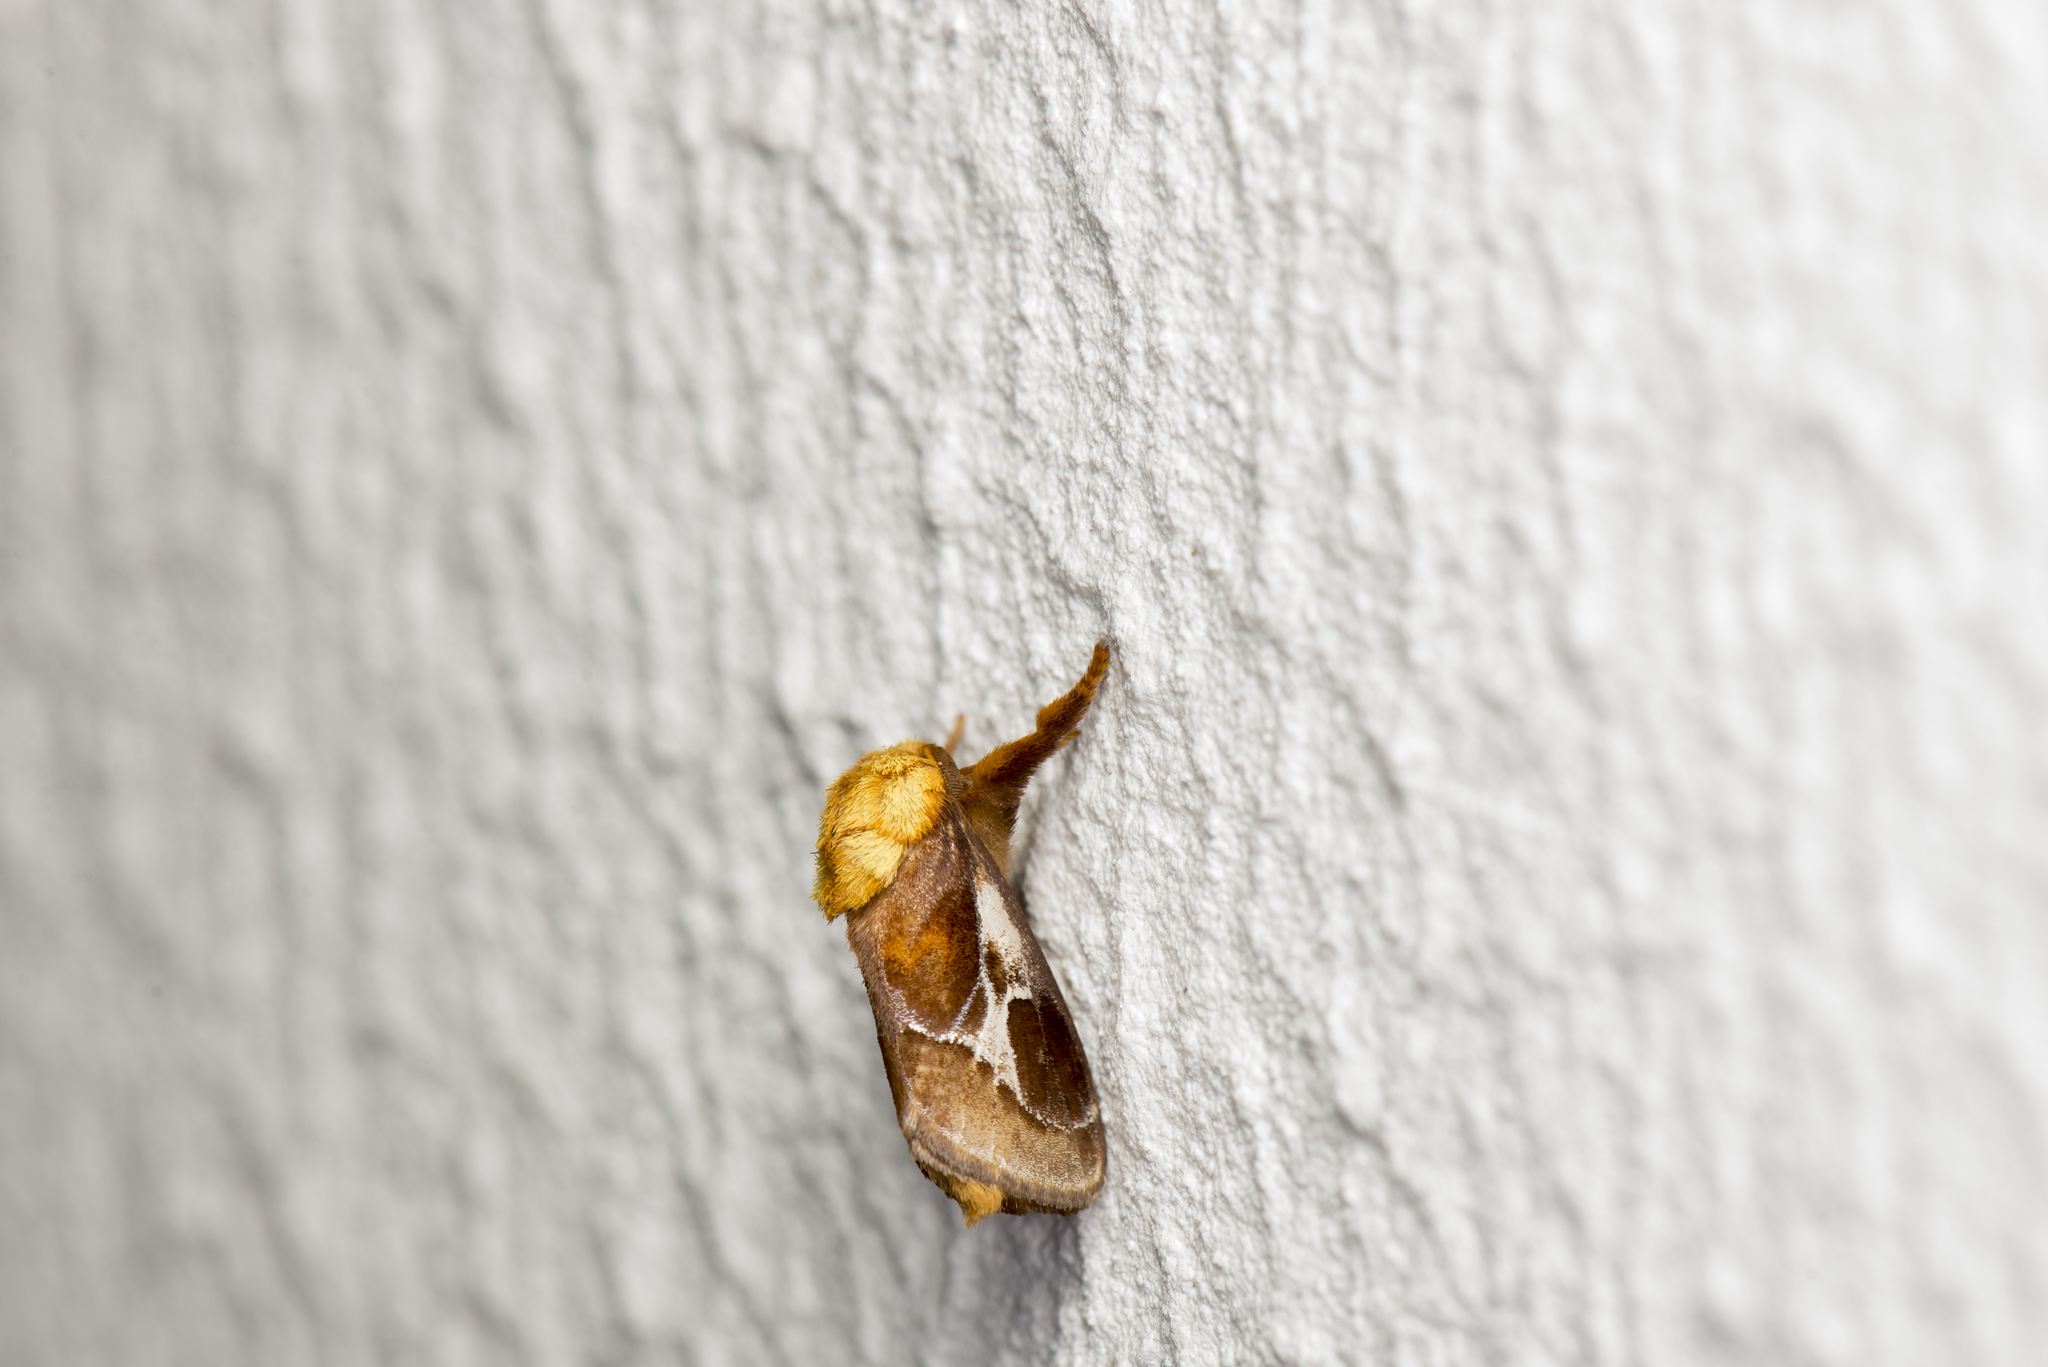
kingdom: Animalia
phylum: Arthropoda
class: Insecta
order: Lepidoptera
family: Limacodidae
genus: Miresa
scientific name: Miresa fulgida
